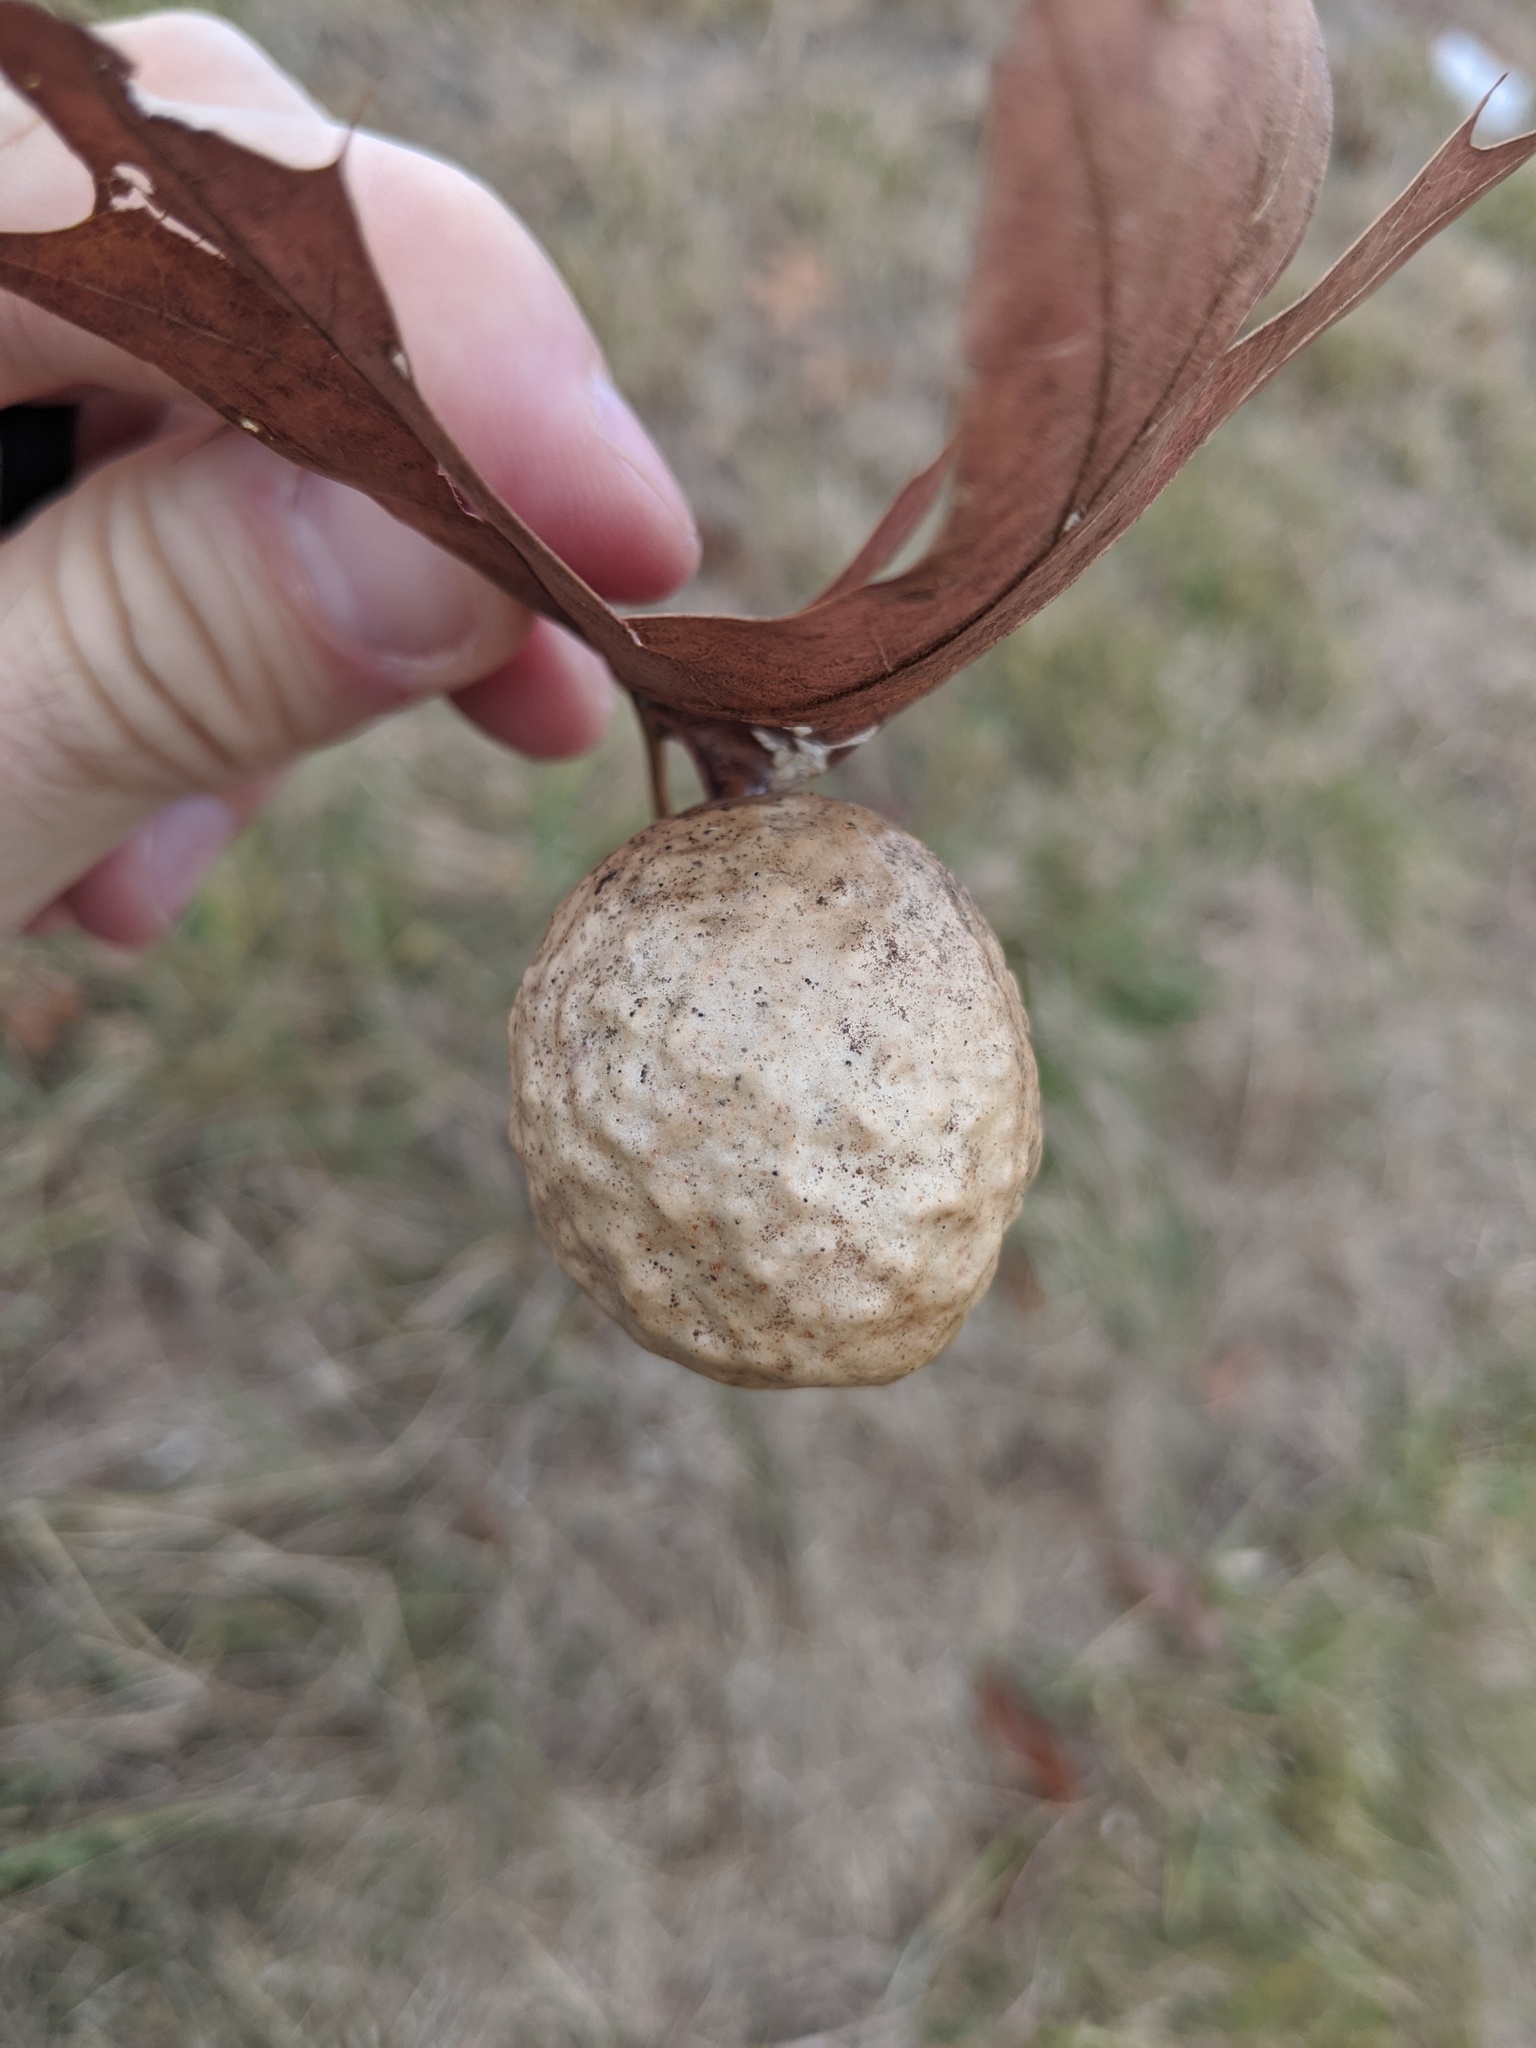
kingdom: Animalia
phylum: Arthropoda
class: Insecta
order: Hymenoptera
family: Cynipidae
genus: Amphibolips
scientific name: Amphibolips
